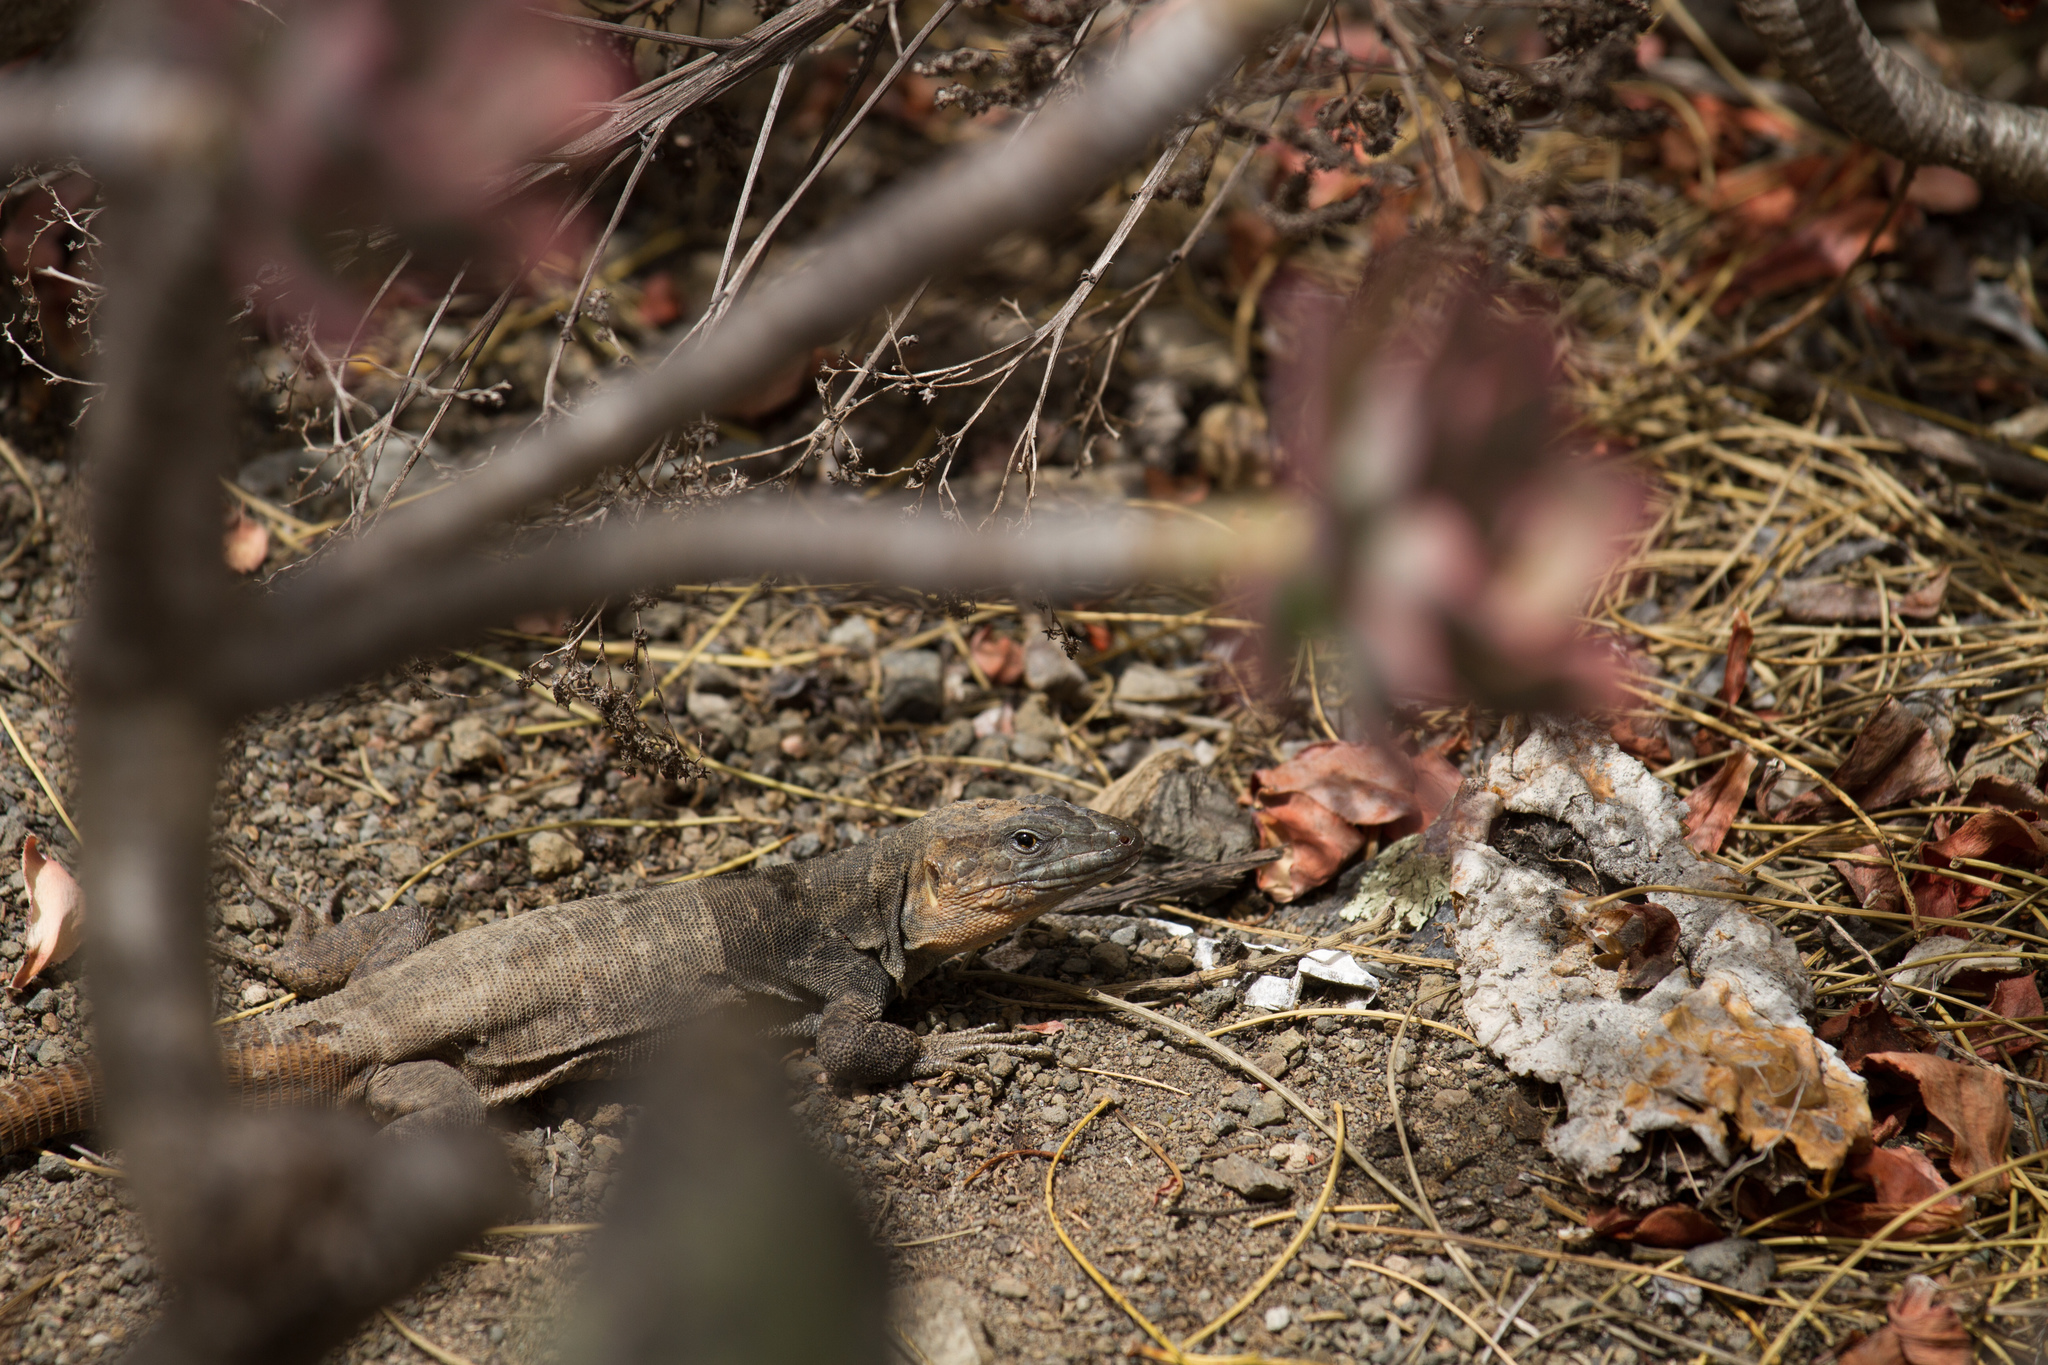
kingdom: Animalia
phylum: Chordata
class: Squamata
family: Lacertidae
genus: Gallotia
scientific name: Gallotia stehlini
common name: Gran canaria giant lizard
